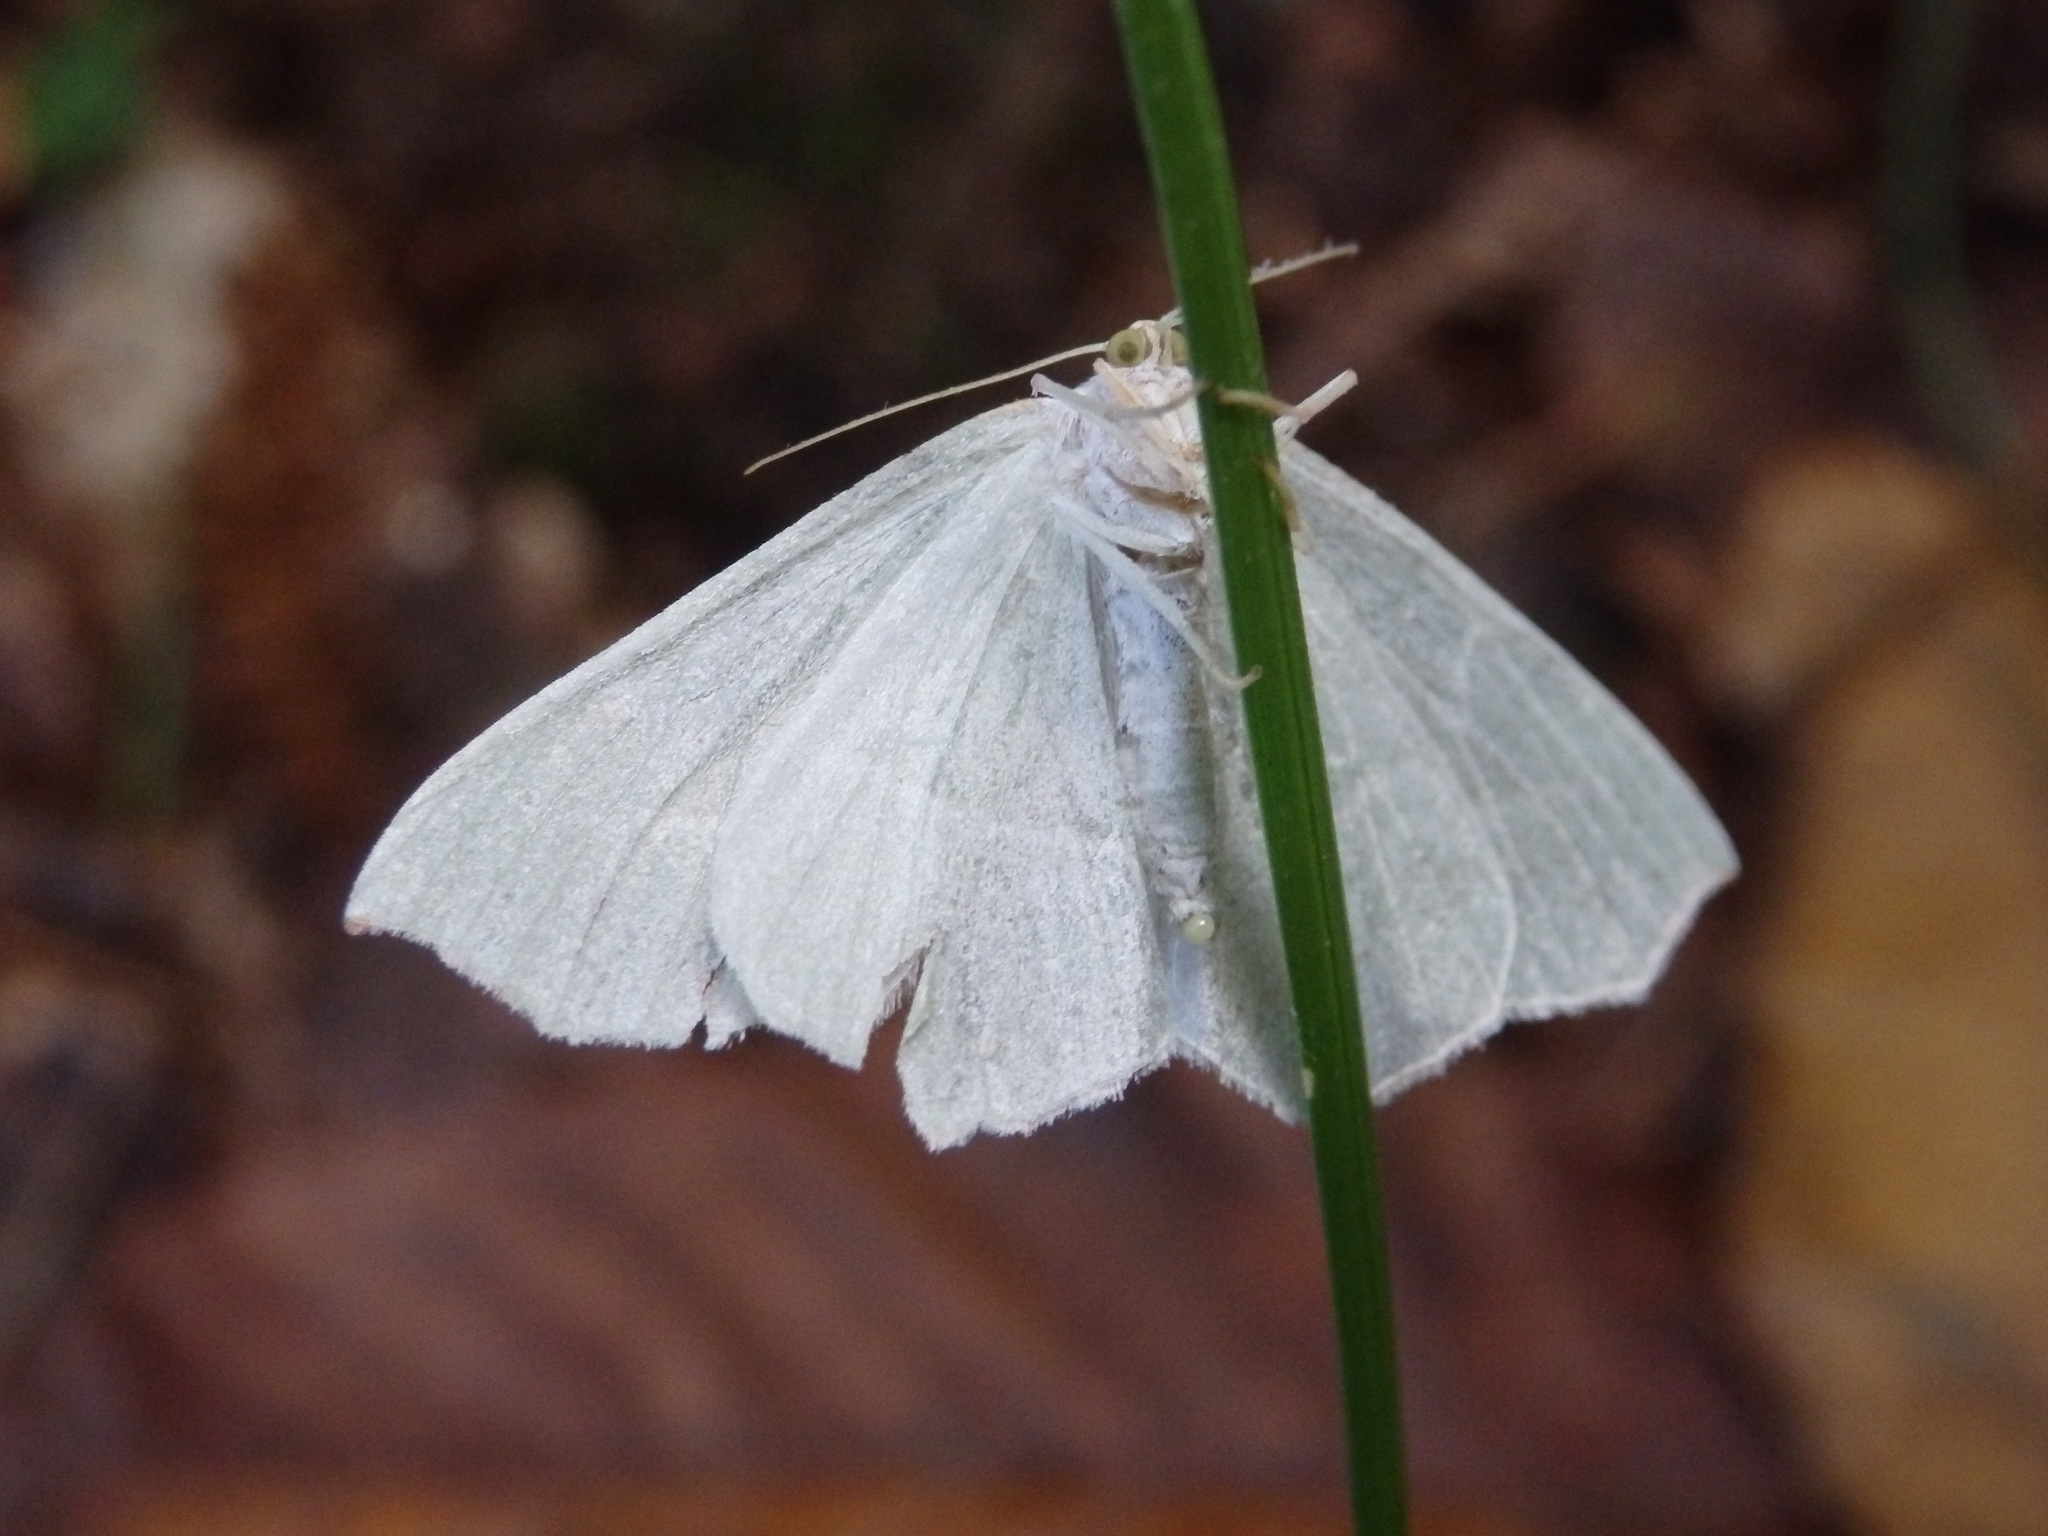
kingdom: Animalia
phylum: Arthropoda
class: Insecta
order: Lepidoptera
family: Geometridae
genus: Campaea
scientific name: Campaea margaritaria
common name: Light emerald
